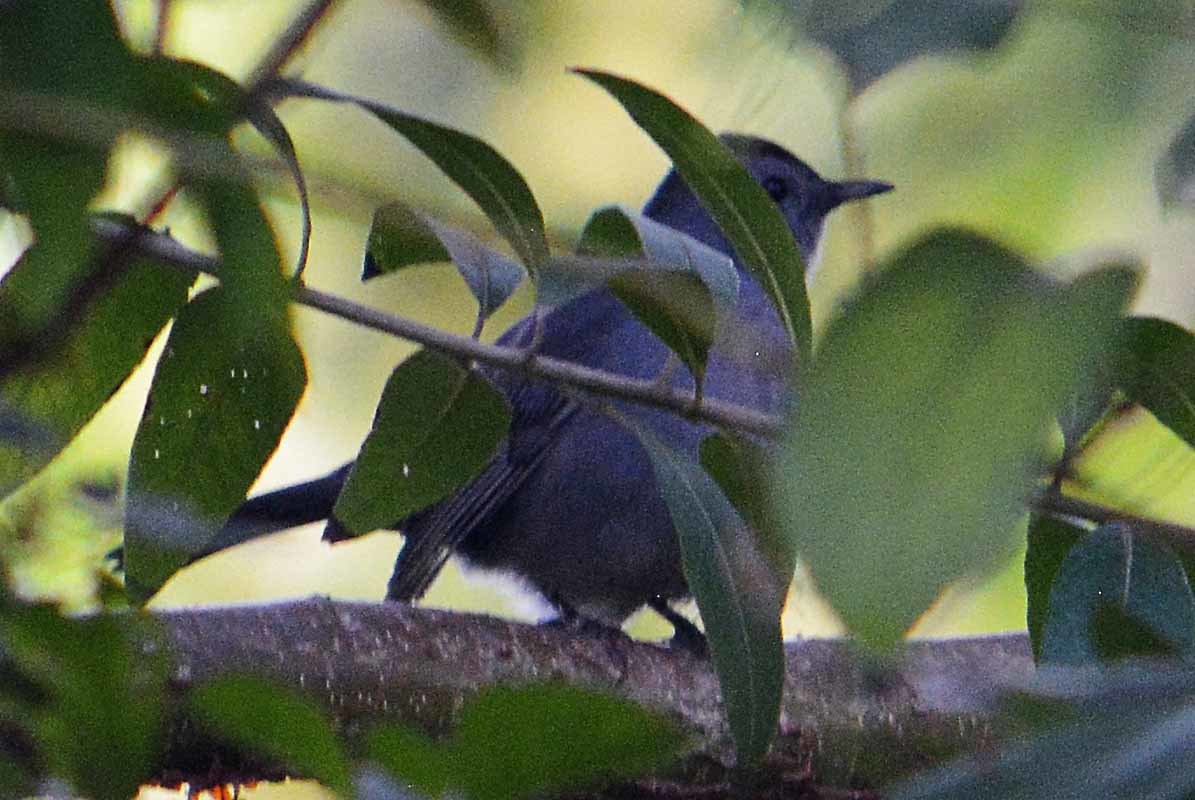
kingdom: Animalia
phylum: Chordata
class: Aves
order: Passeriformes
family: Mimidae
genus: Dumetella
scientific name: Dumetella carolinensis
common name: Gray catbird
